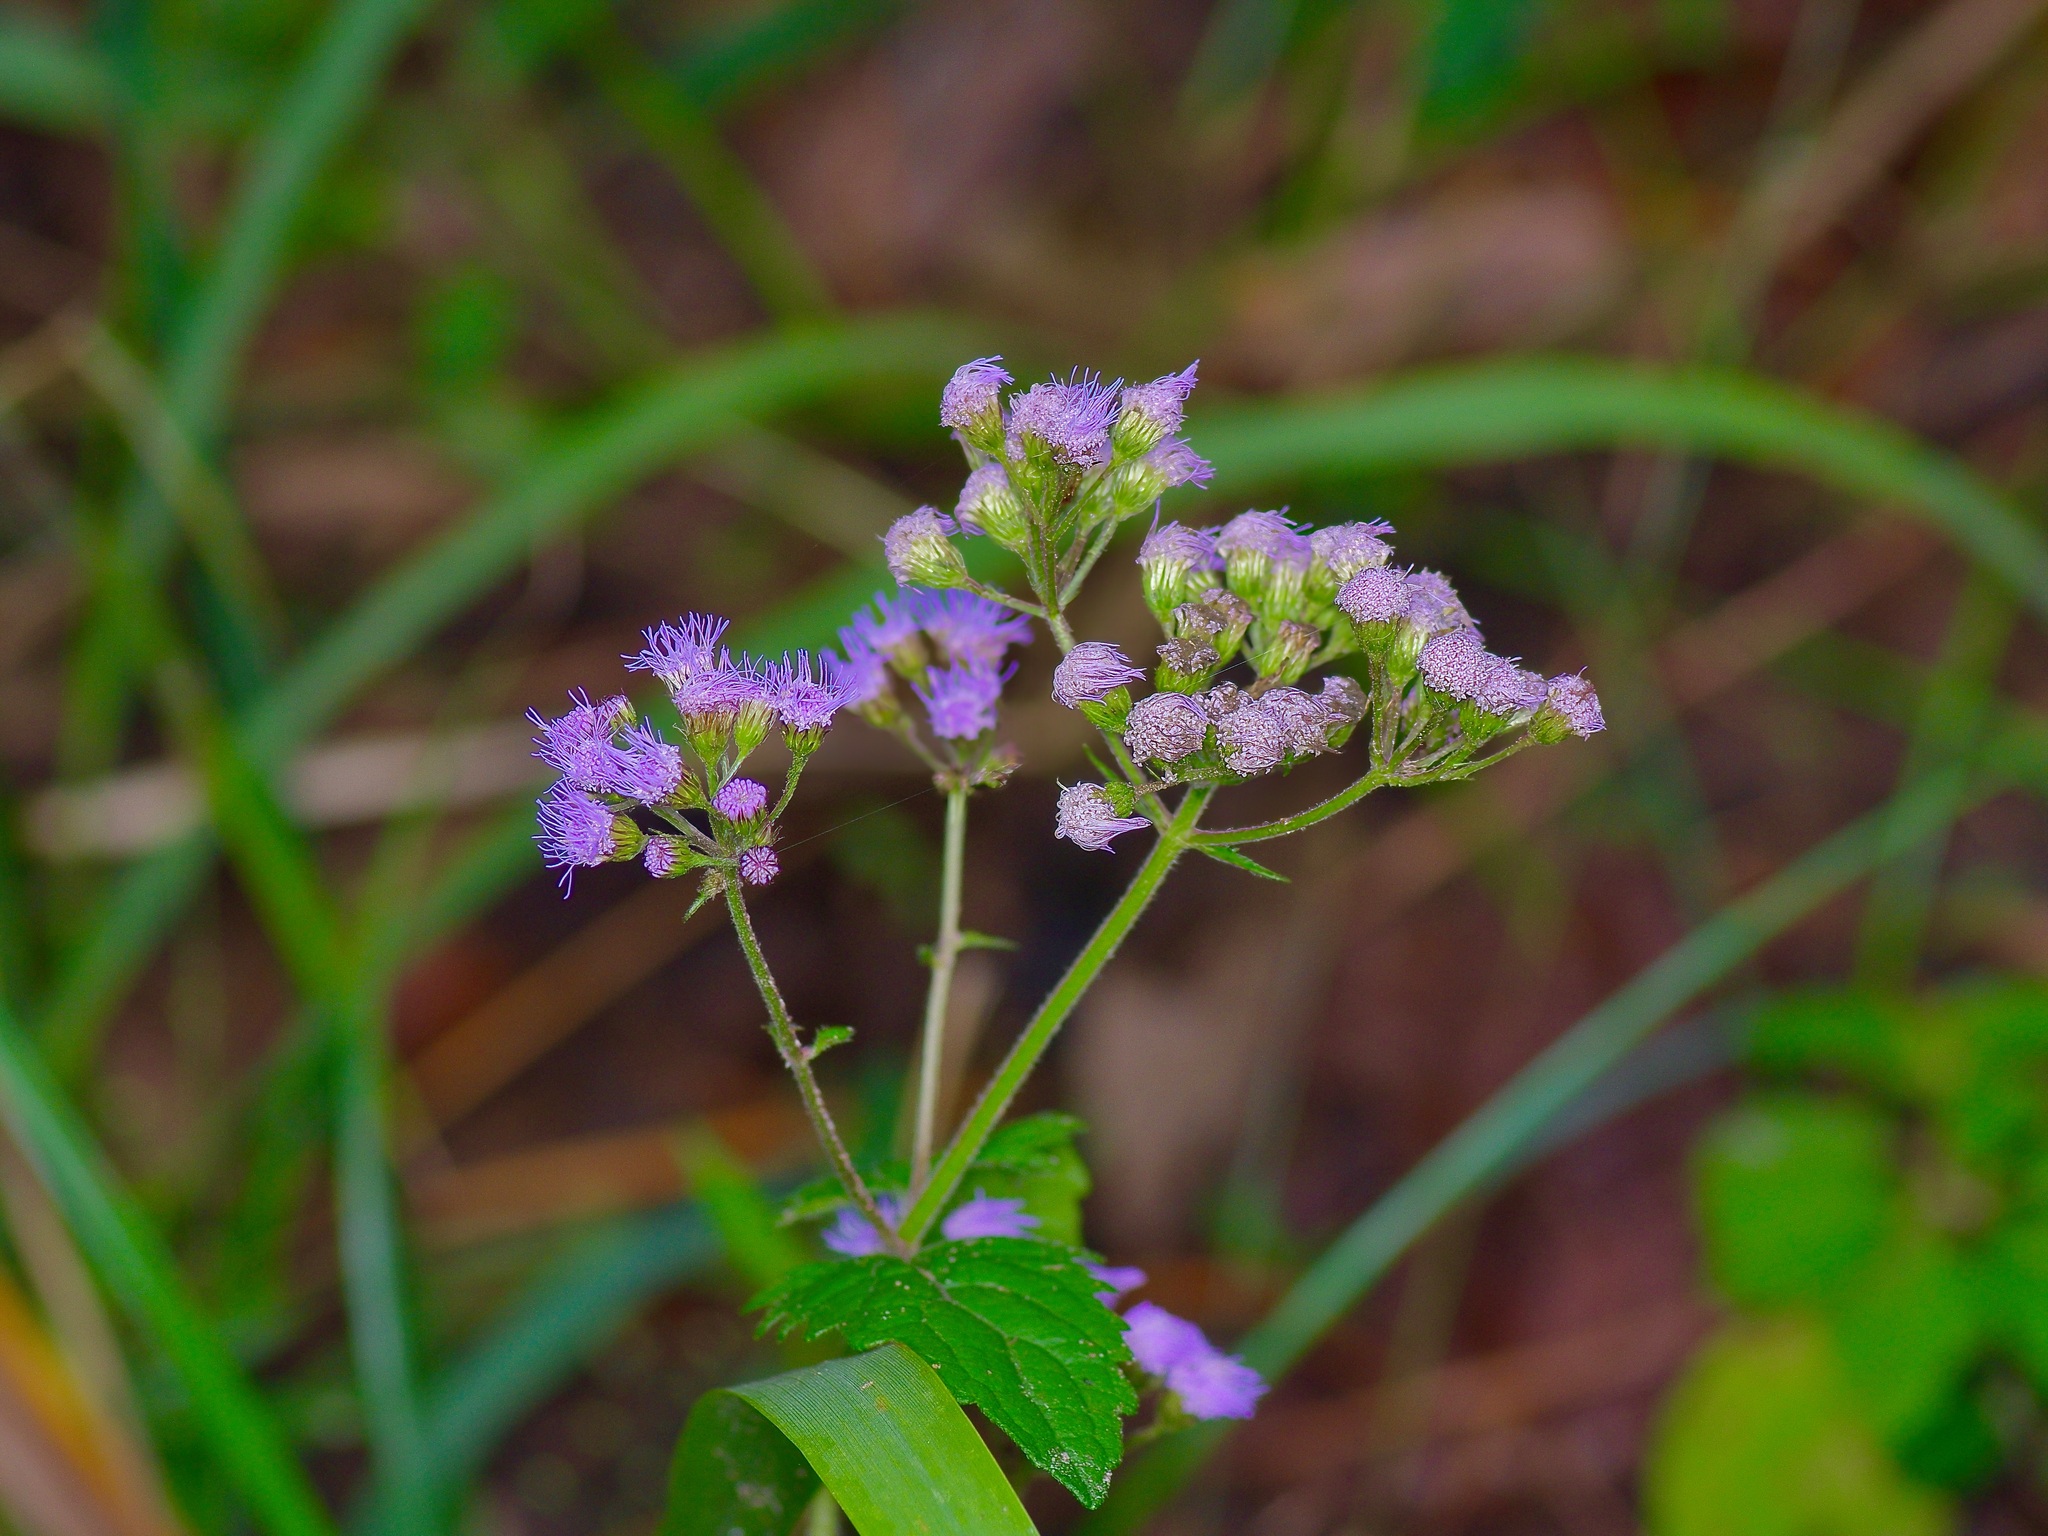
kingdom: Plantae
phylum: Tracheophyta
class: Magnoliopsida
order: Asterales
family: Asteraceae
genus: Conoclinium
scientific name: Conoclinium coelestinum
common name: Blue mistflower
